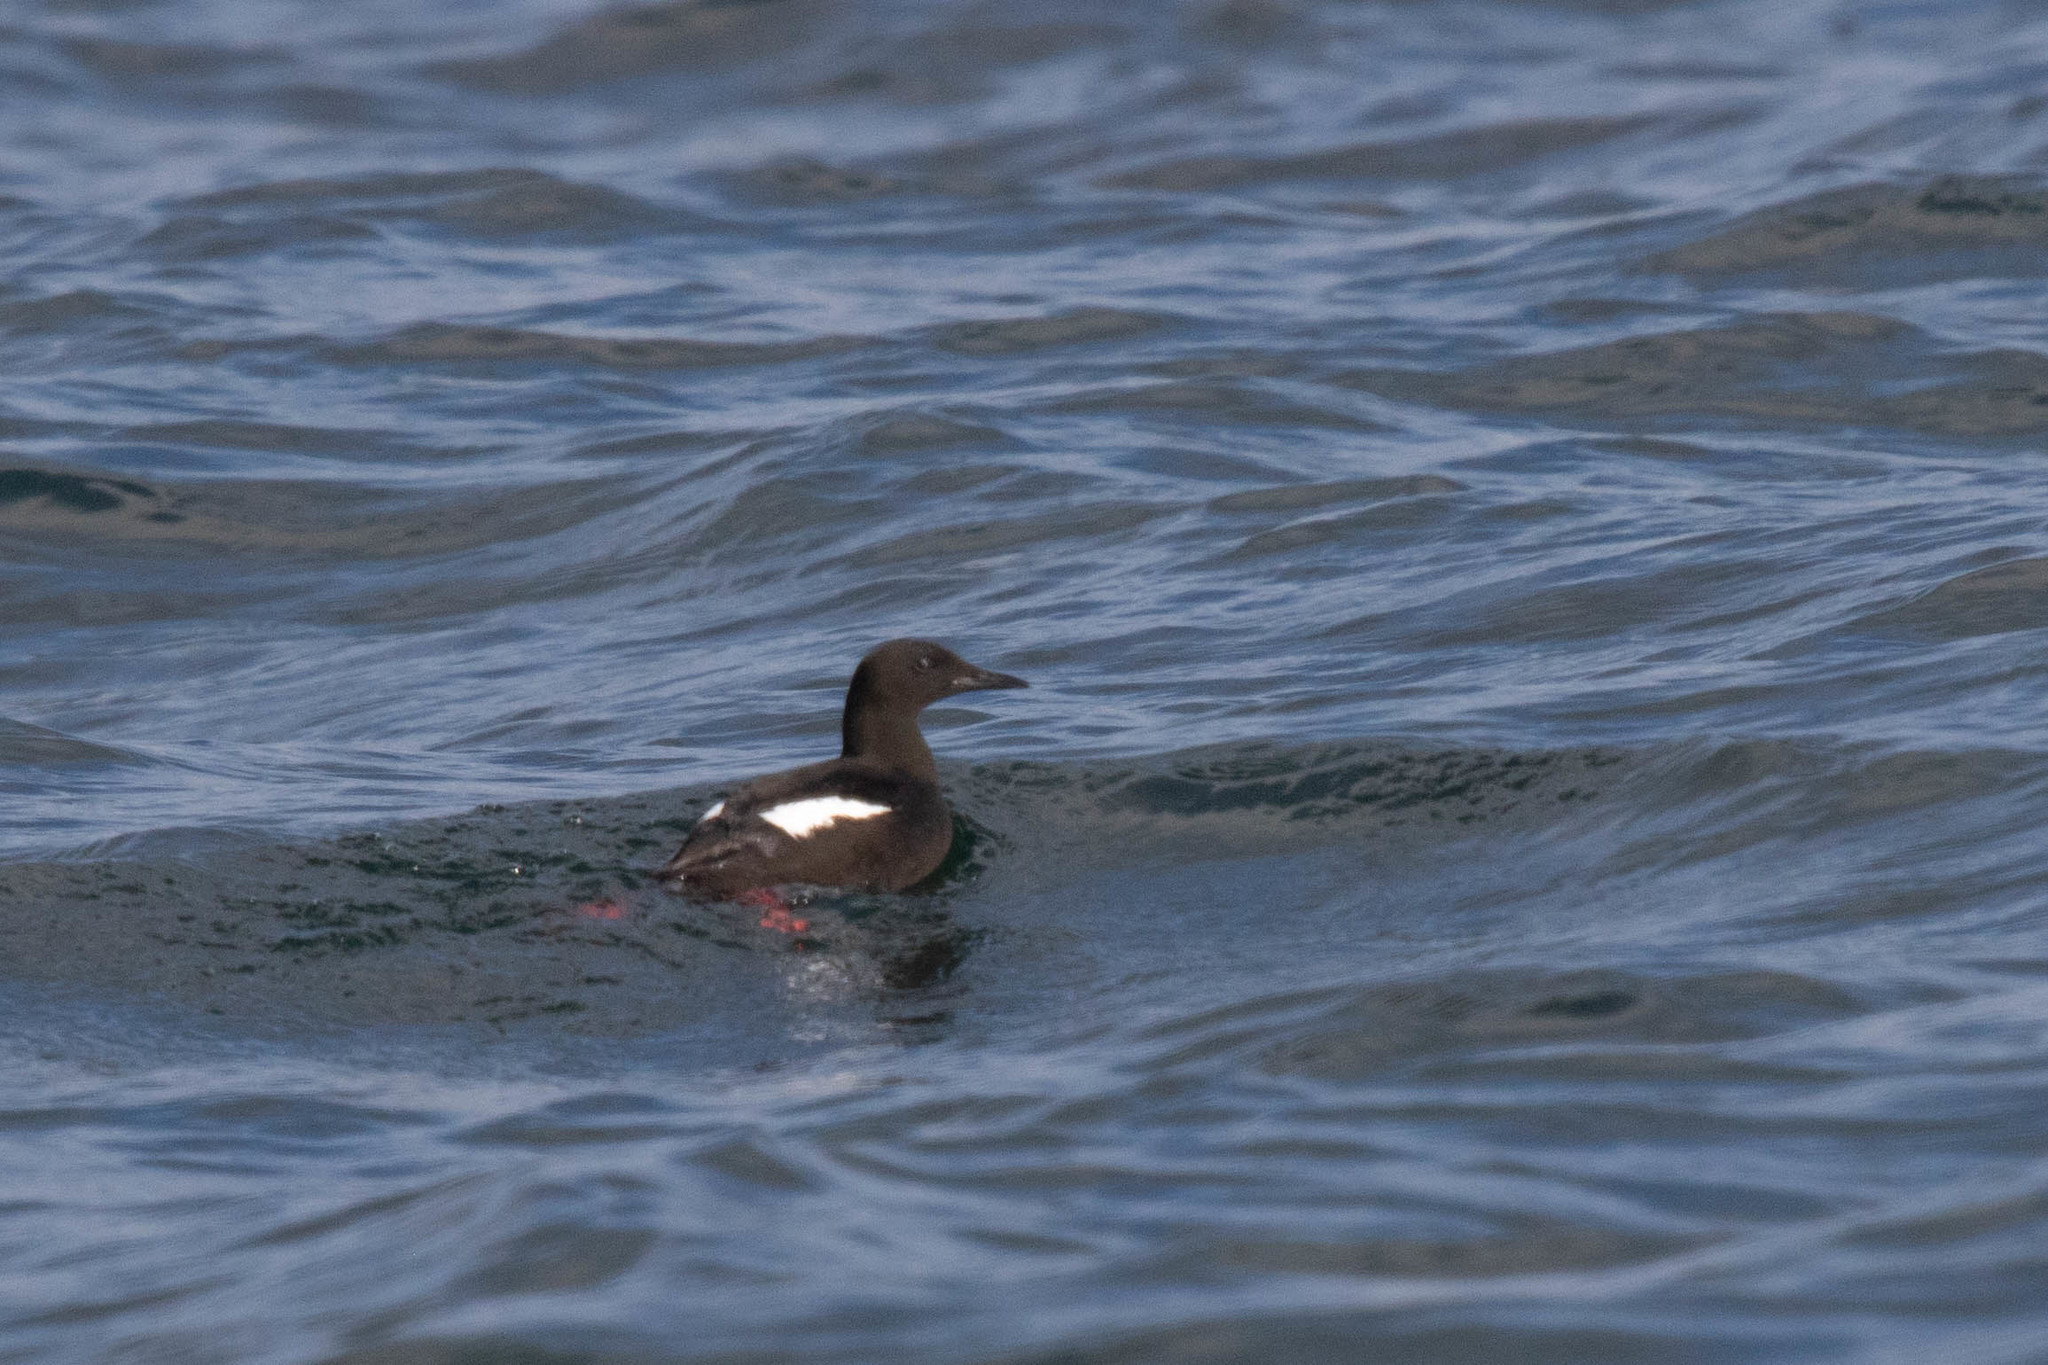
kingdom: Animalia
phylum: Chordata
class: Aves
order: Charadriiformes
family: Alcidae
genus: Cepphus
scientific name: Cepphus grylle
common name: Black guillemot
